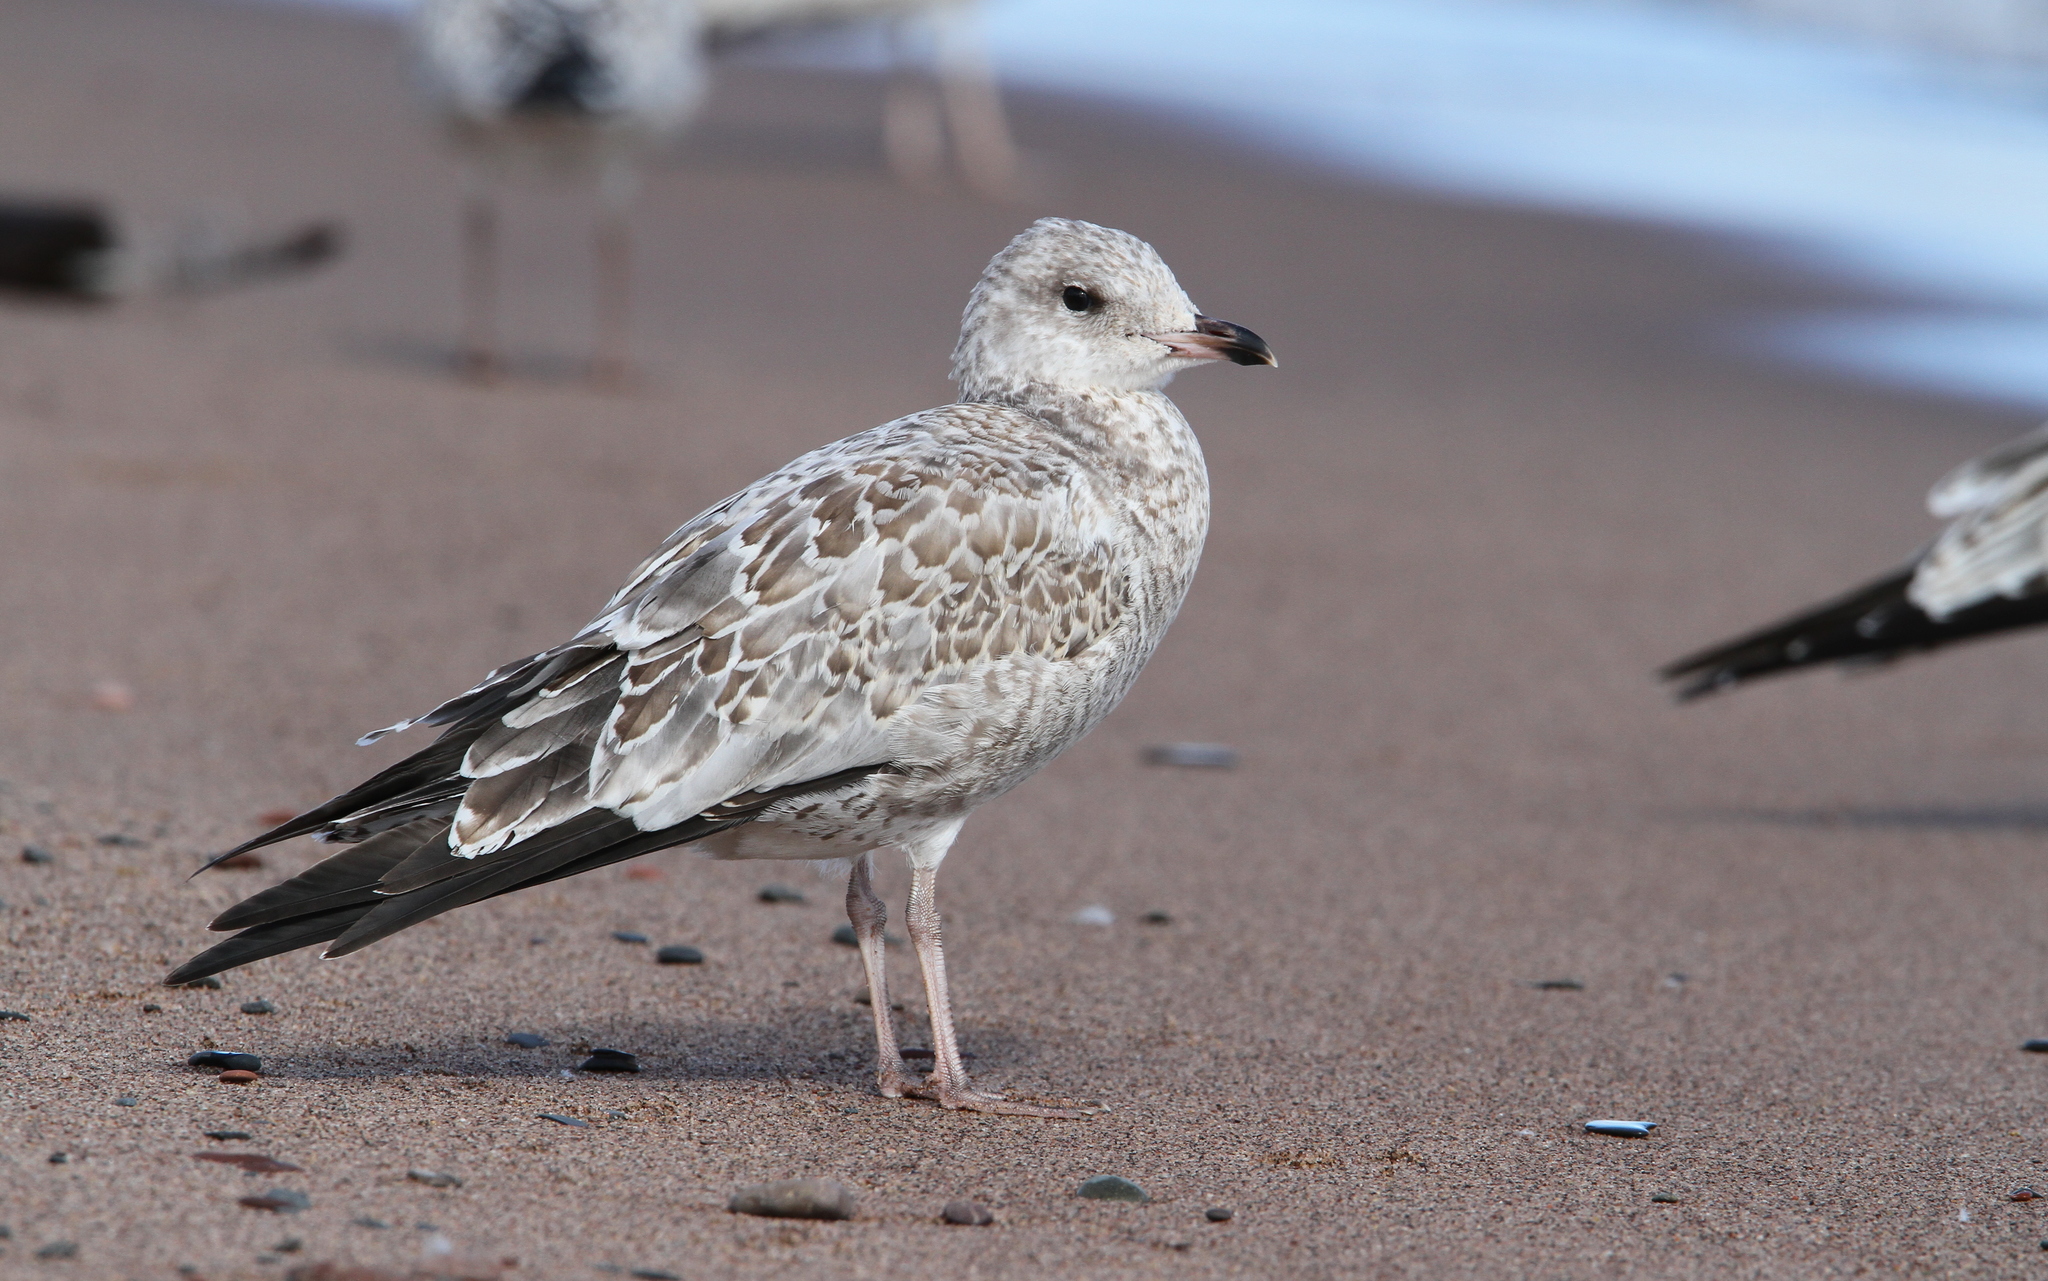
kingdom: Animalia
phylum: Chordata
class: Aves
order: Charadriiformes
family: Laridae
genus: Larus
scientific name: Larus delawarensis
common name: Ring-billed gull
